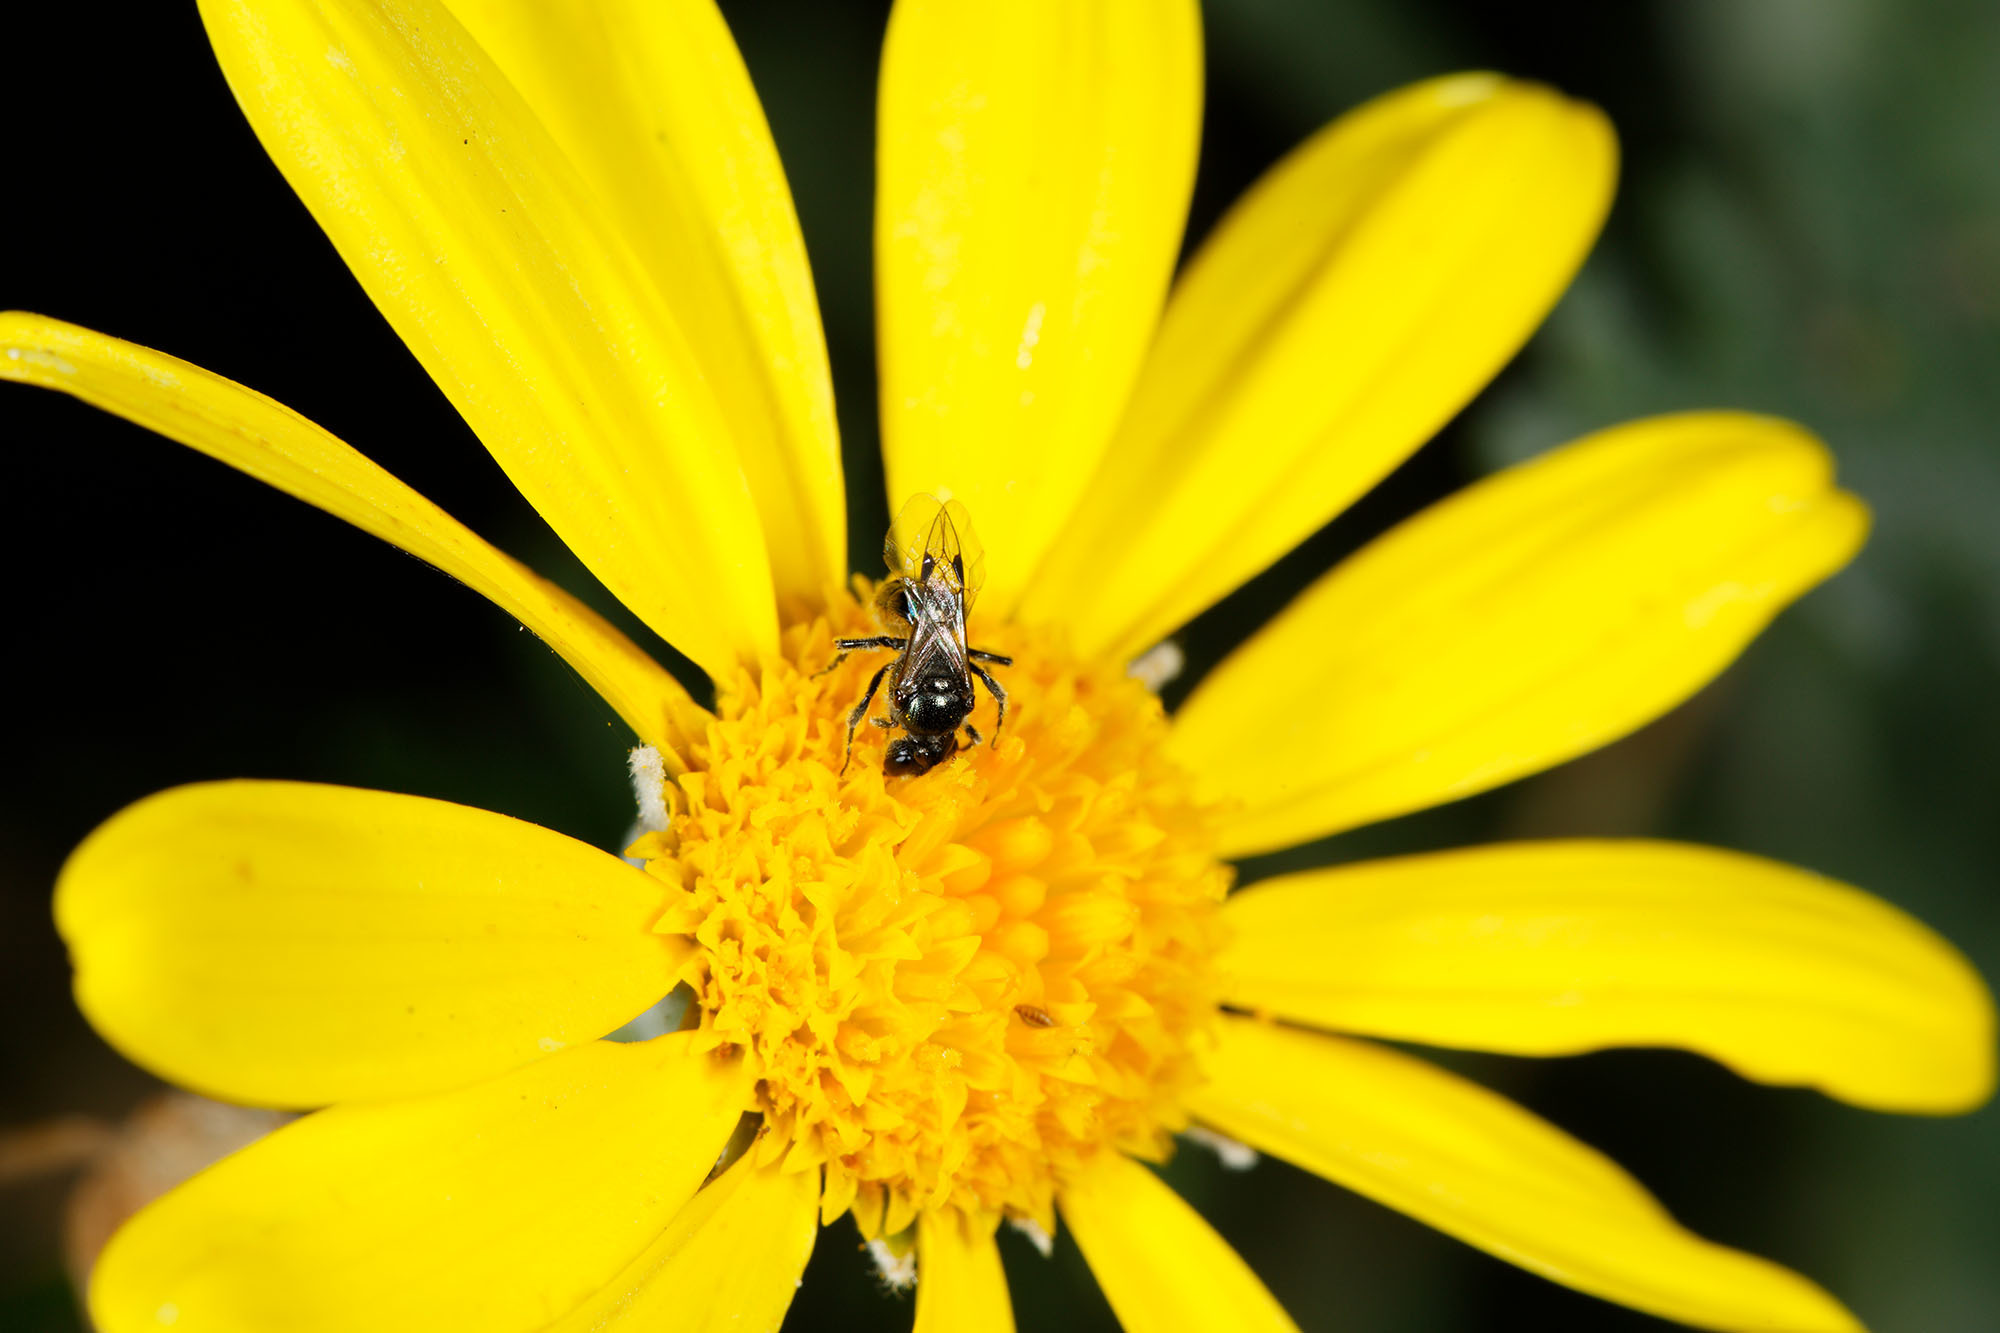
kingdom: Animalia
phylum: Arthropoda
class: Insecta
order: Hymenoptera
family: Halictidae
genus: Lasioglossum
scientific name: Lasioglossum sphecodoides
